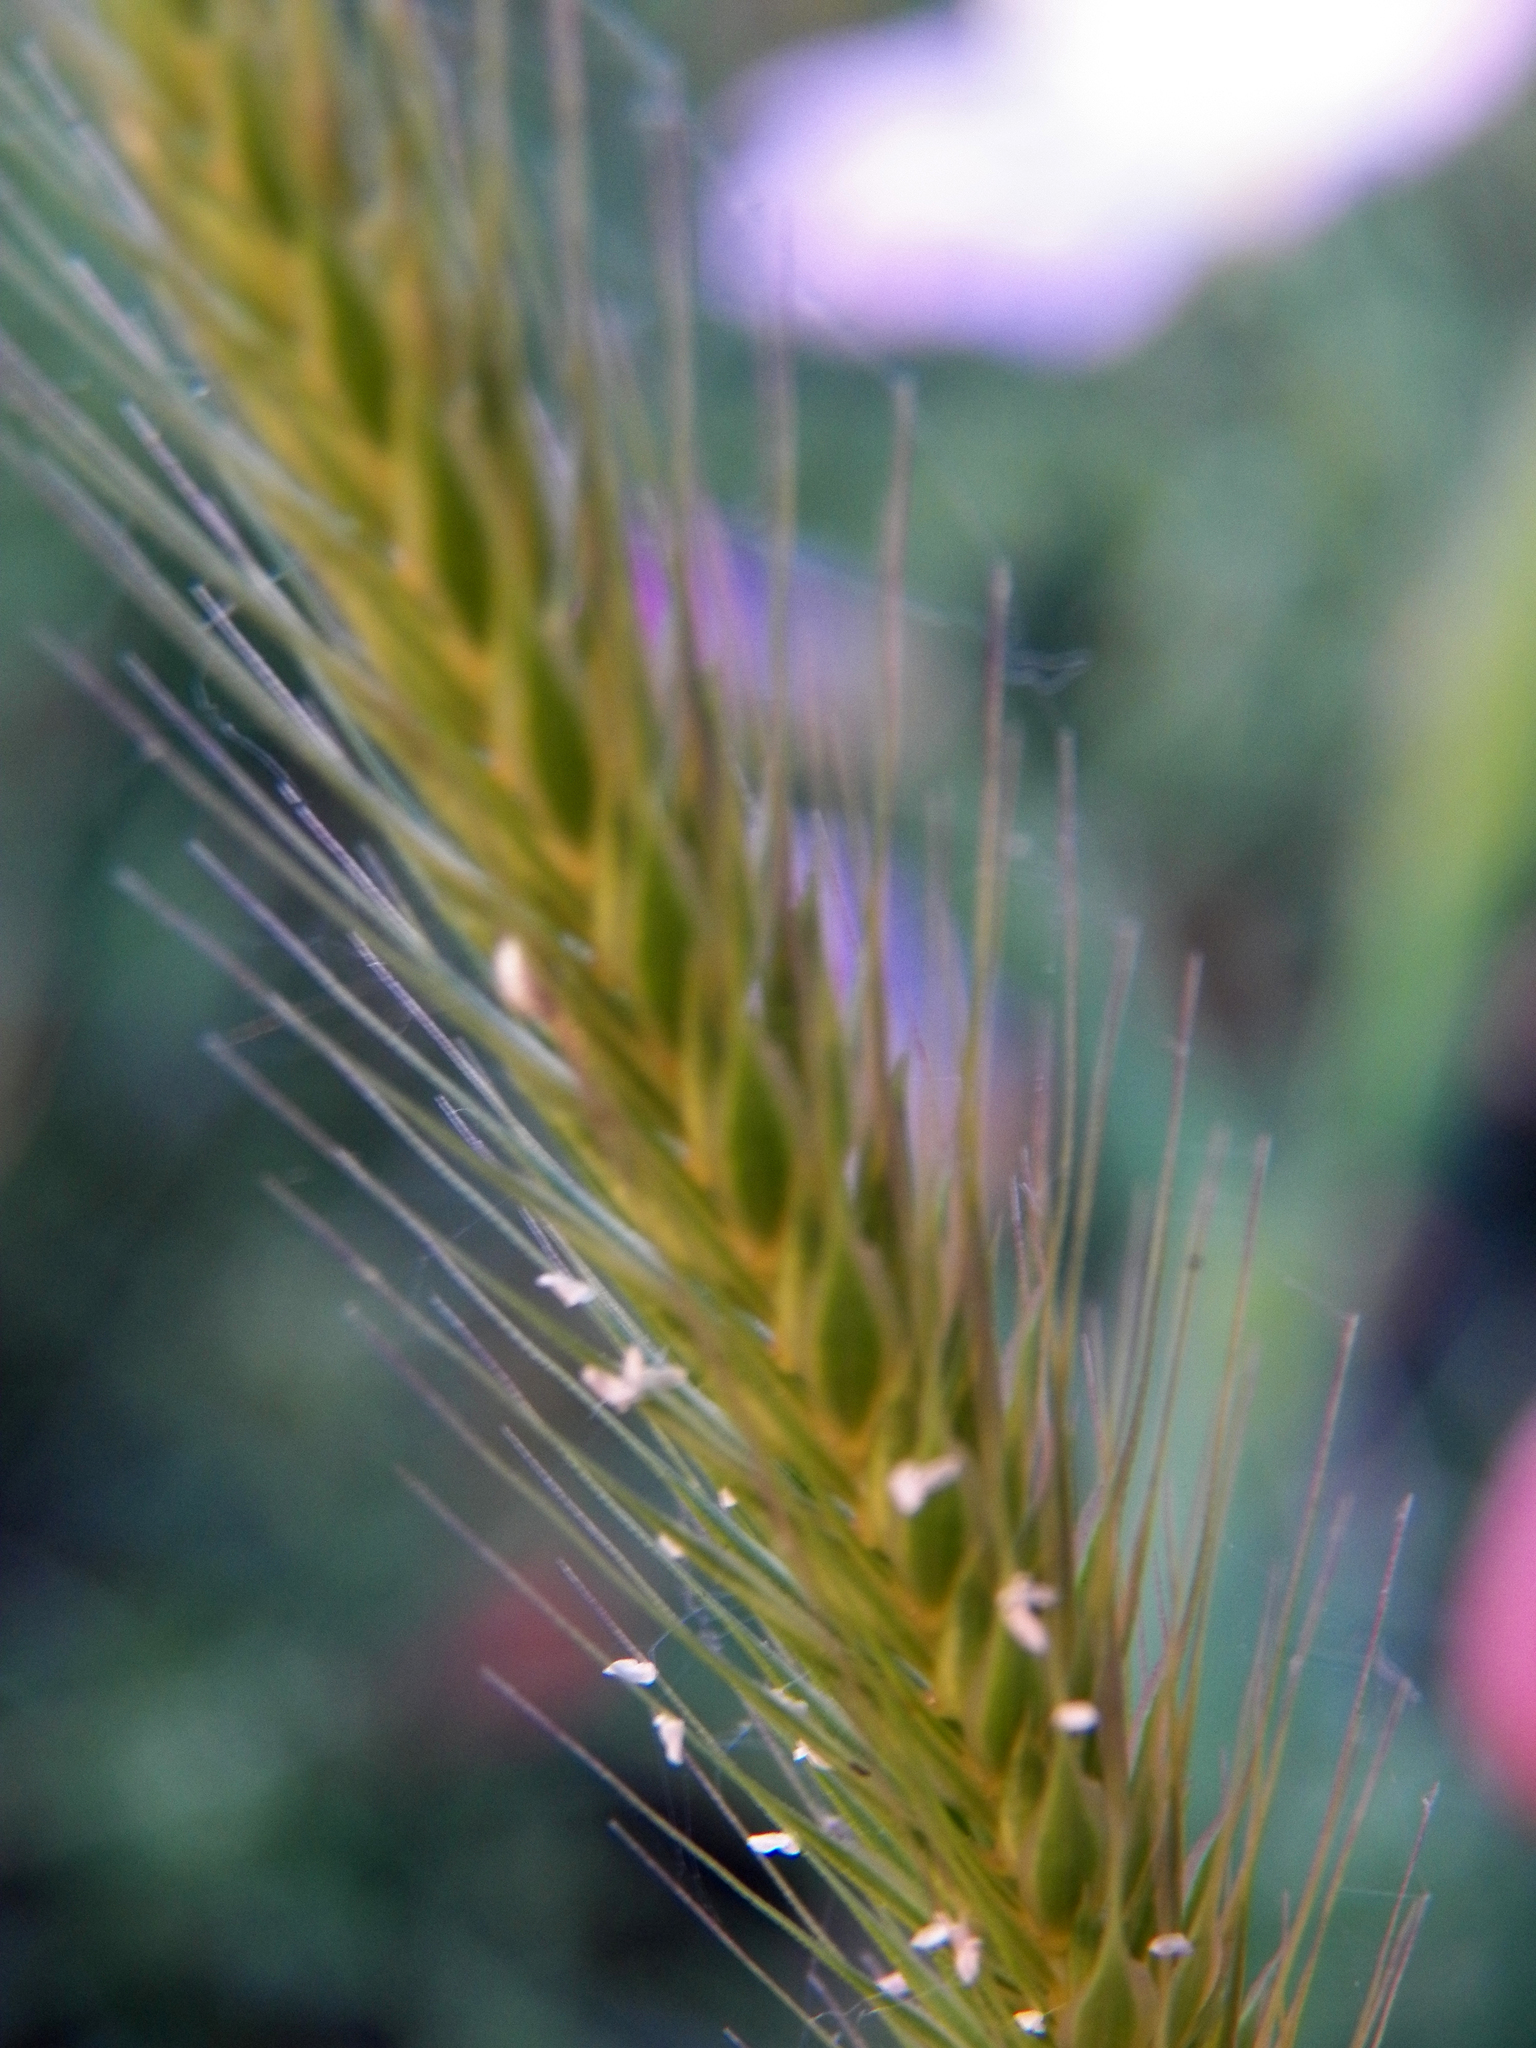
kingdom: Plantae
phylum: Tracheophyta
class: Liliopsida
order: Poales
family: Poaceae
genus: Hordeum
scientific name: Hordeum pusillum
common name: Little barley
